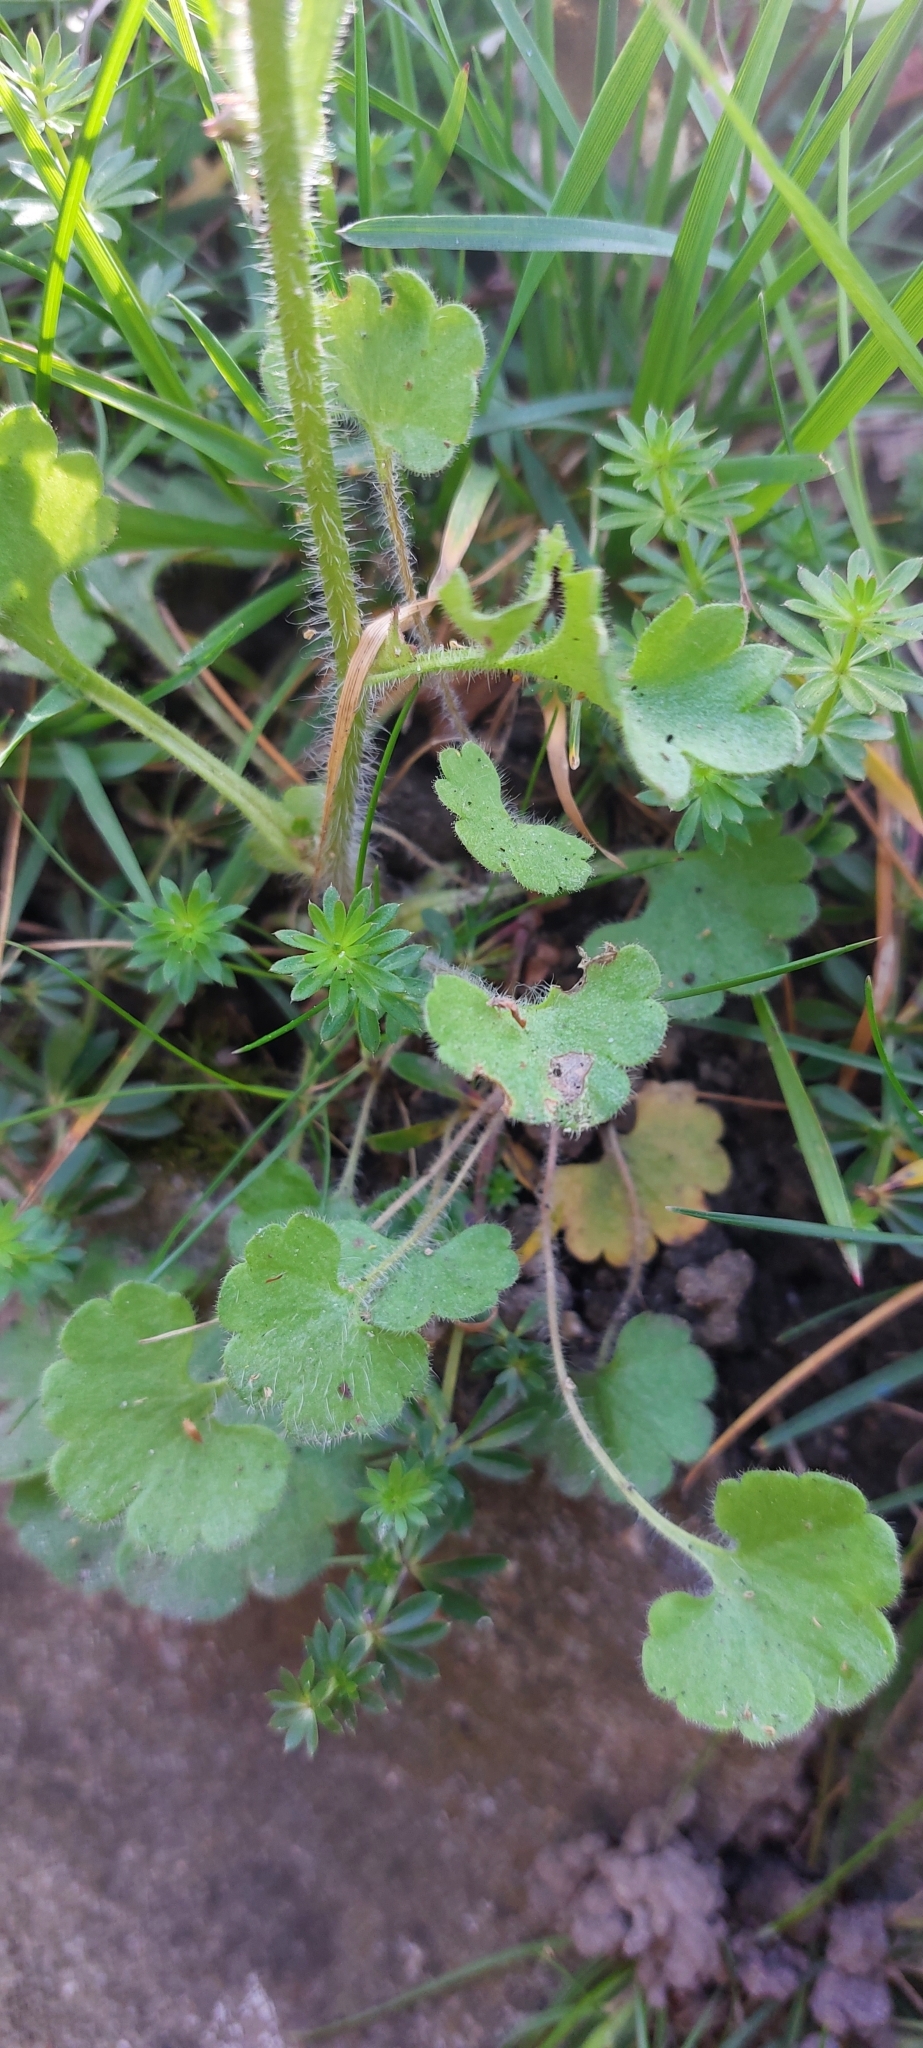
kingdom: Plantae
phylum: Tracheophyta
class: Magnoliopsida
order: Saxifragales
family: Saxifragaceae
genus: Saxifraga
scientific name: Saxifraga granulata
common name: Meadow saxifrage
